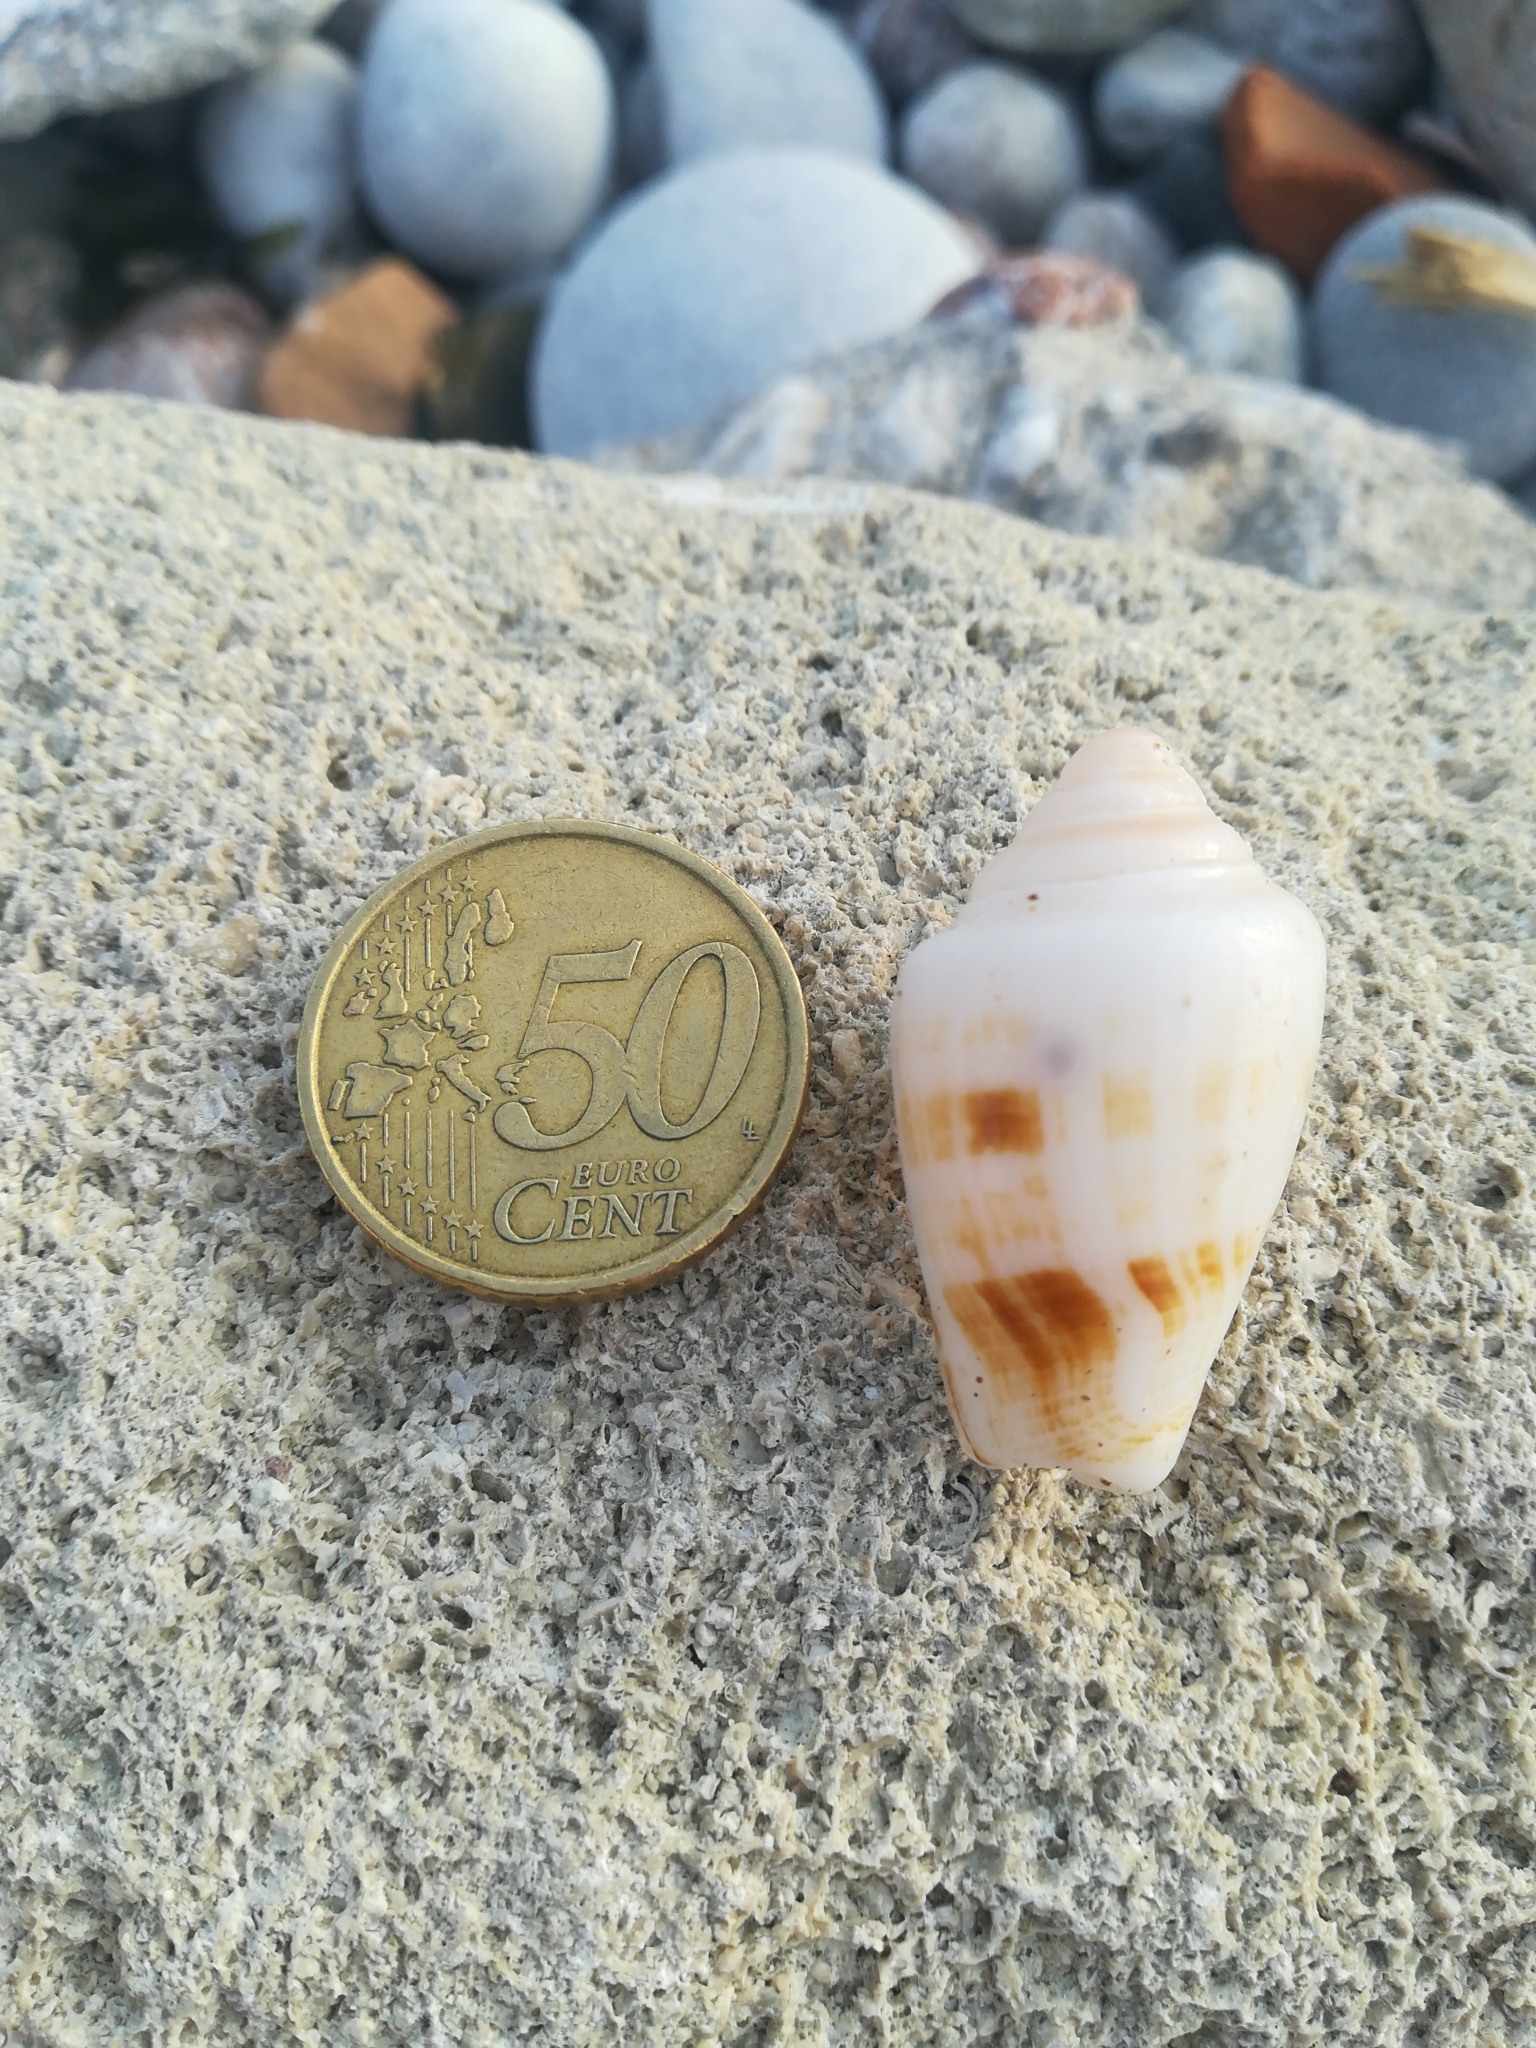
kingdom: Animalia
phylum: Mollusca
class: Gastropoda
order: Littorinimorpha
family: Strombidae
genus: Conomurex
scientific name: Conomurex persicus
